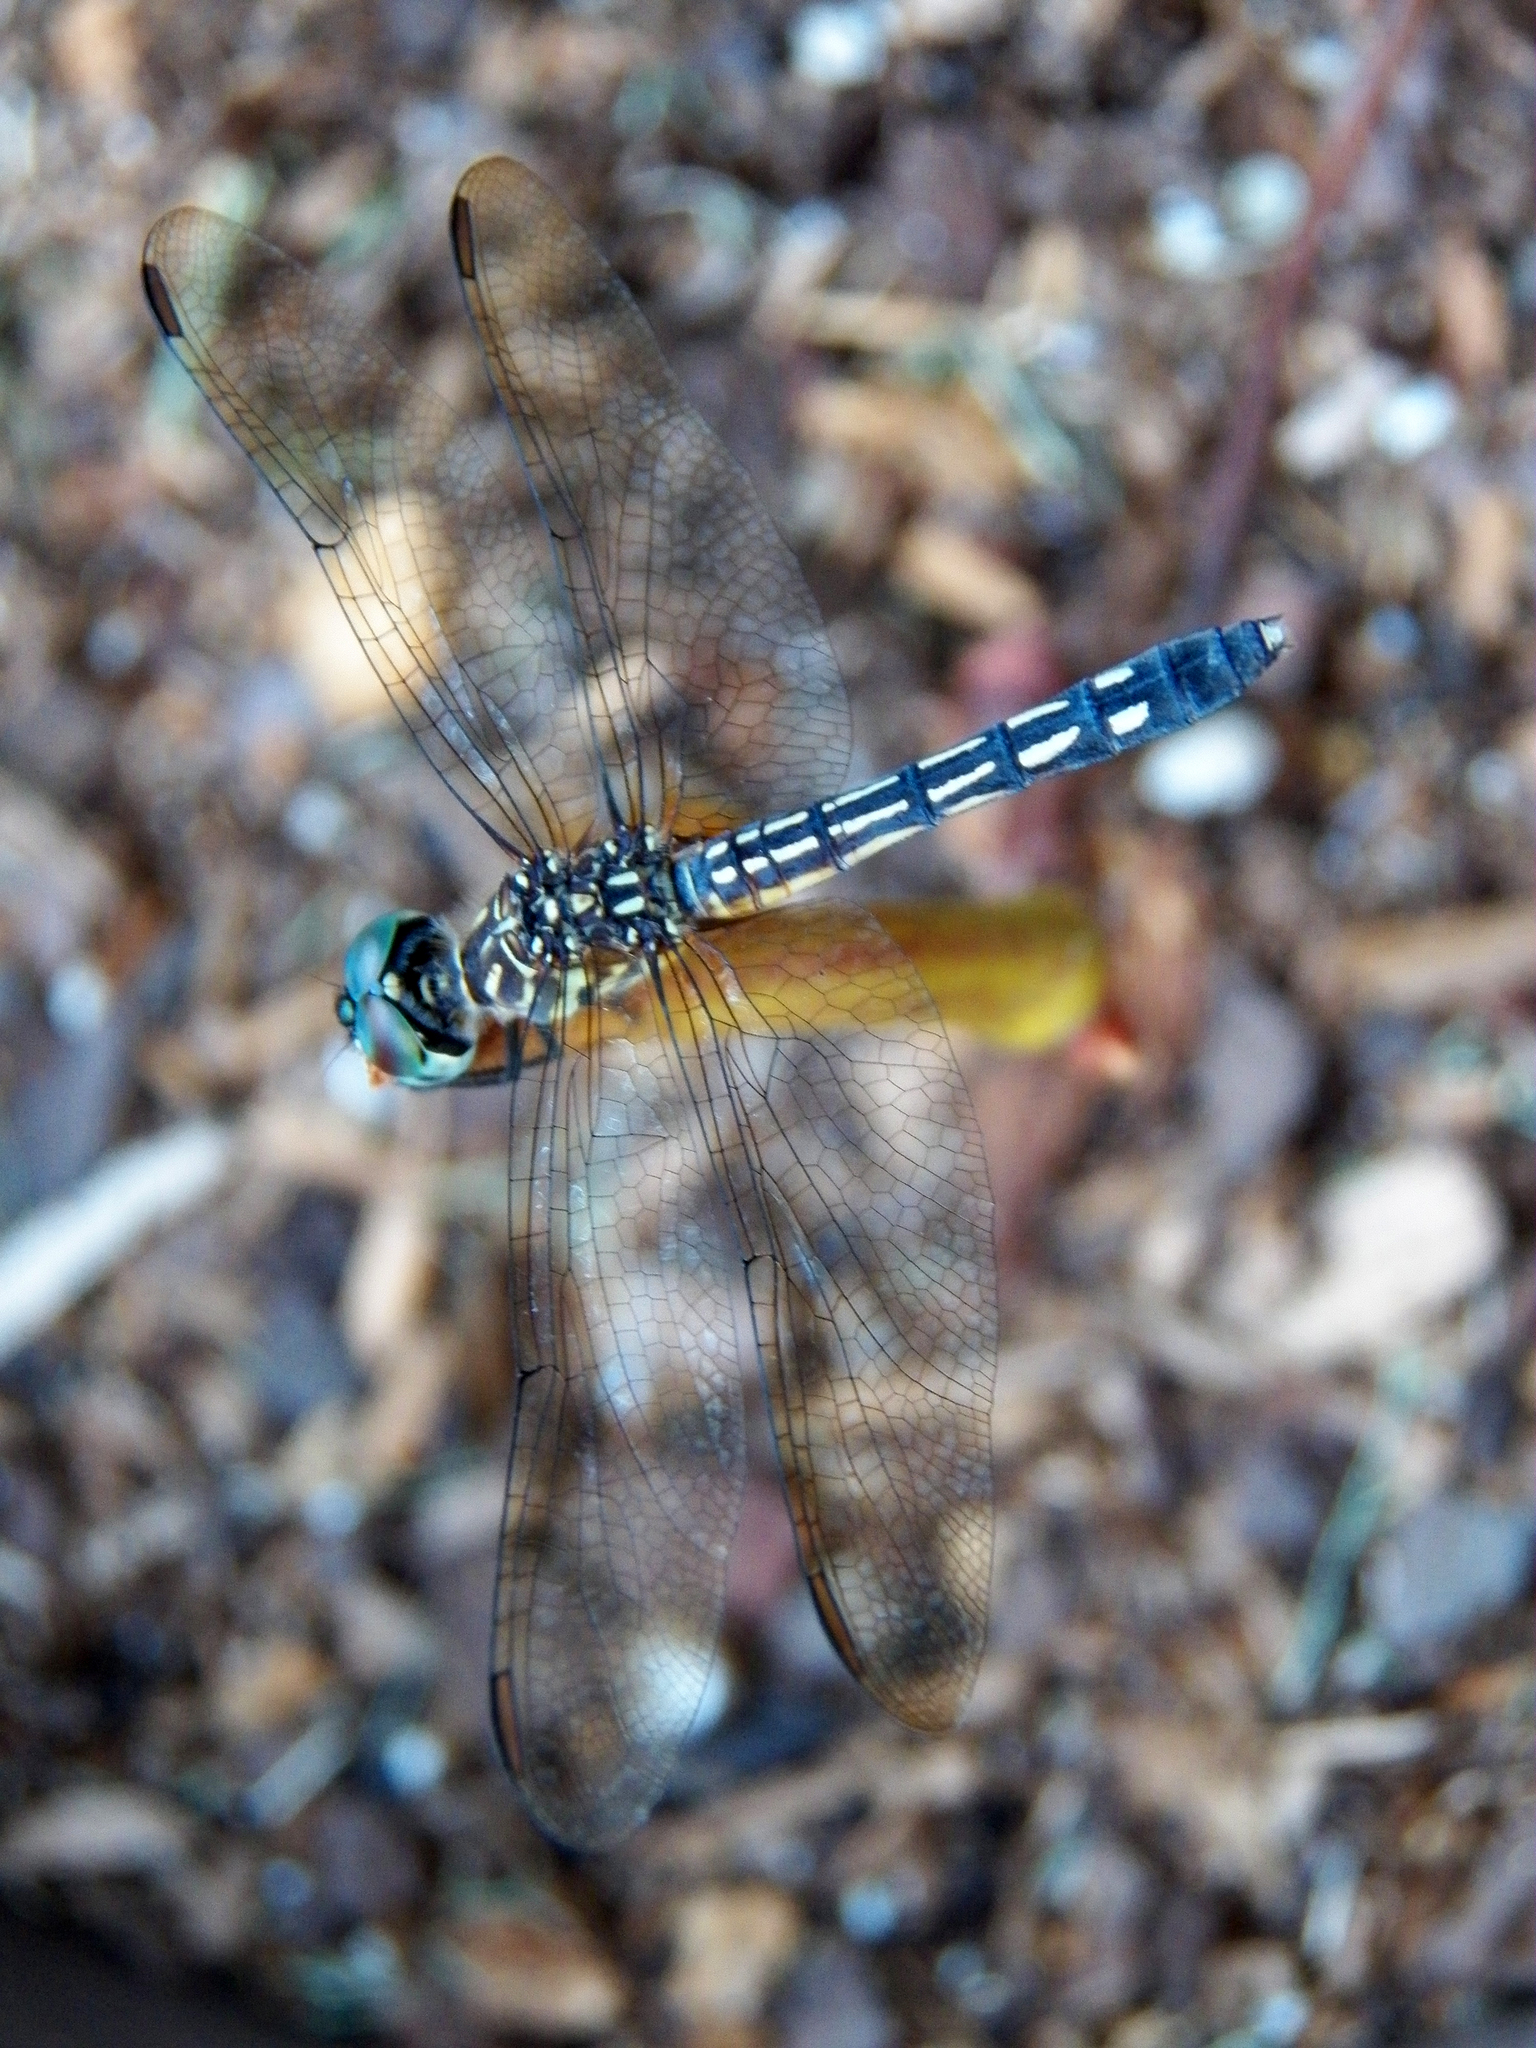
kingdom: Animalia
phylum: Arthropoda
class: Insecta
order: Odonata
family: Libellulidae
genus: Pachydiplax
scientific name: Pachydiplax longipennis
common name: Blue dasher
